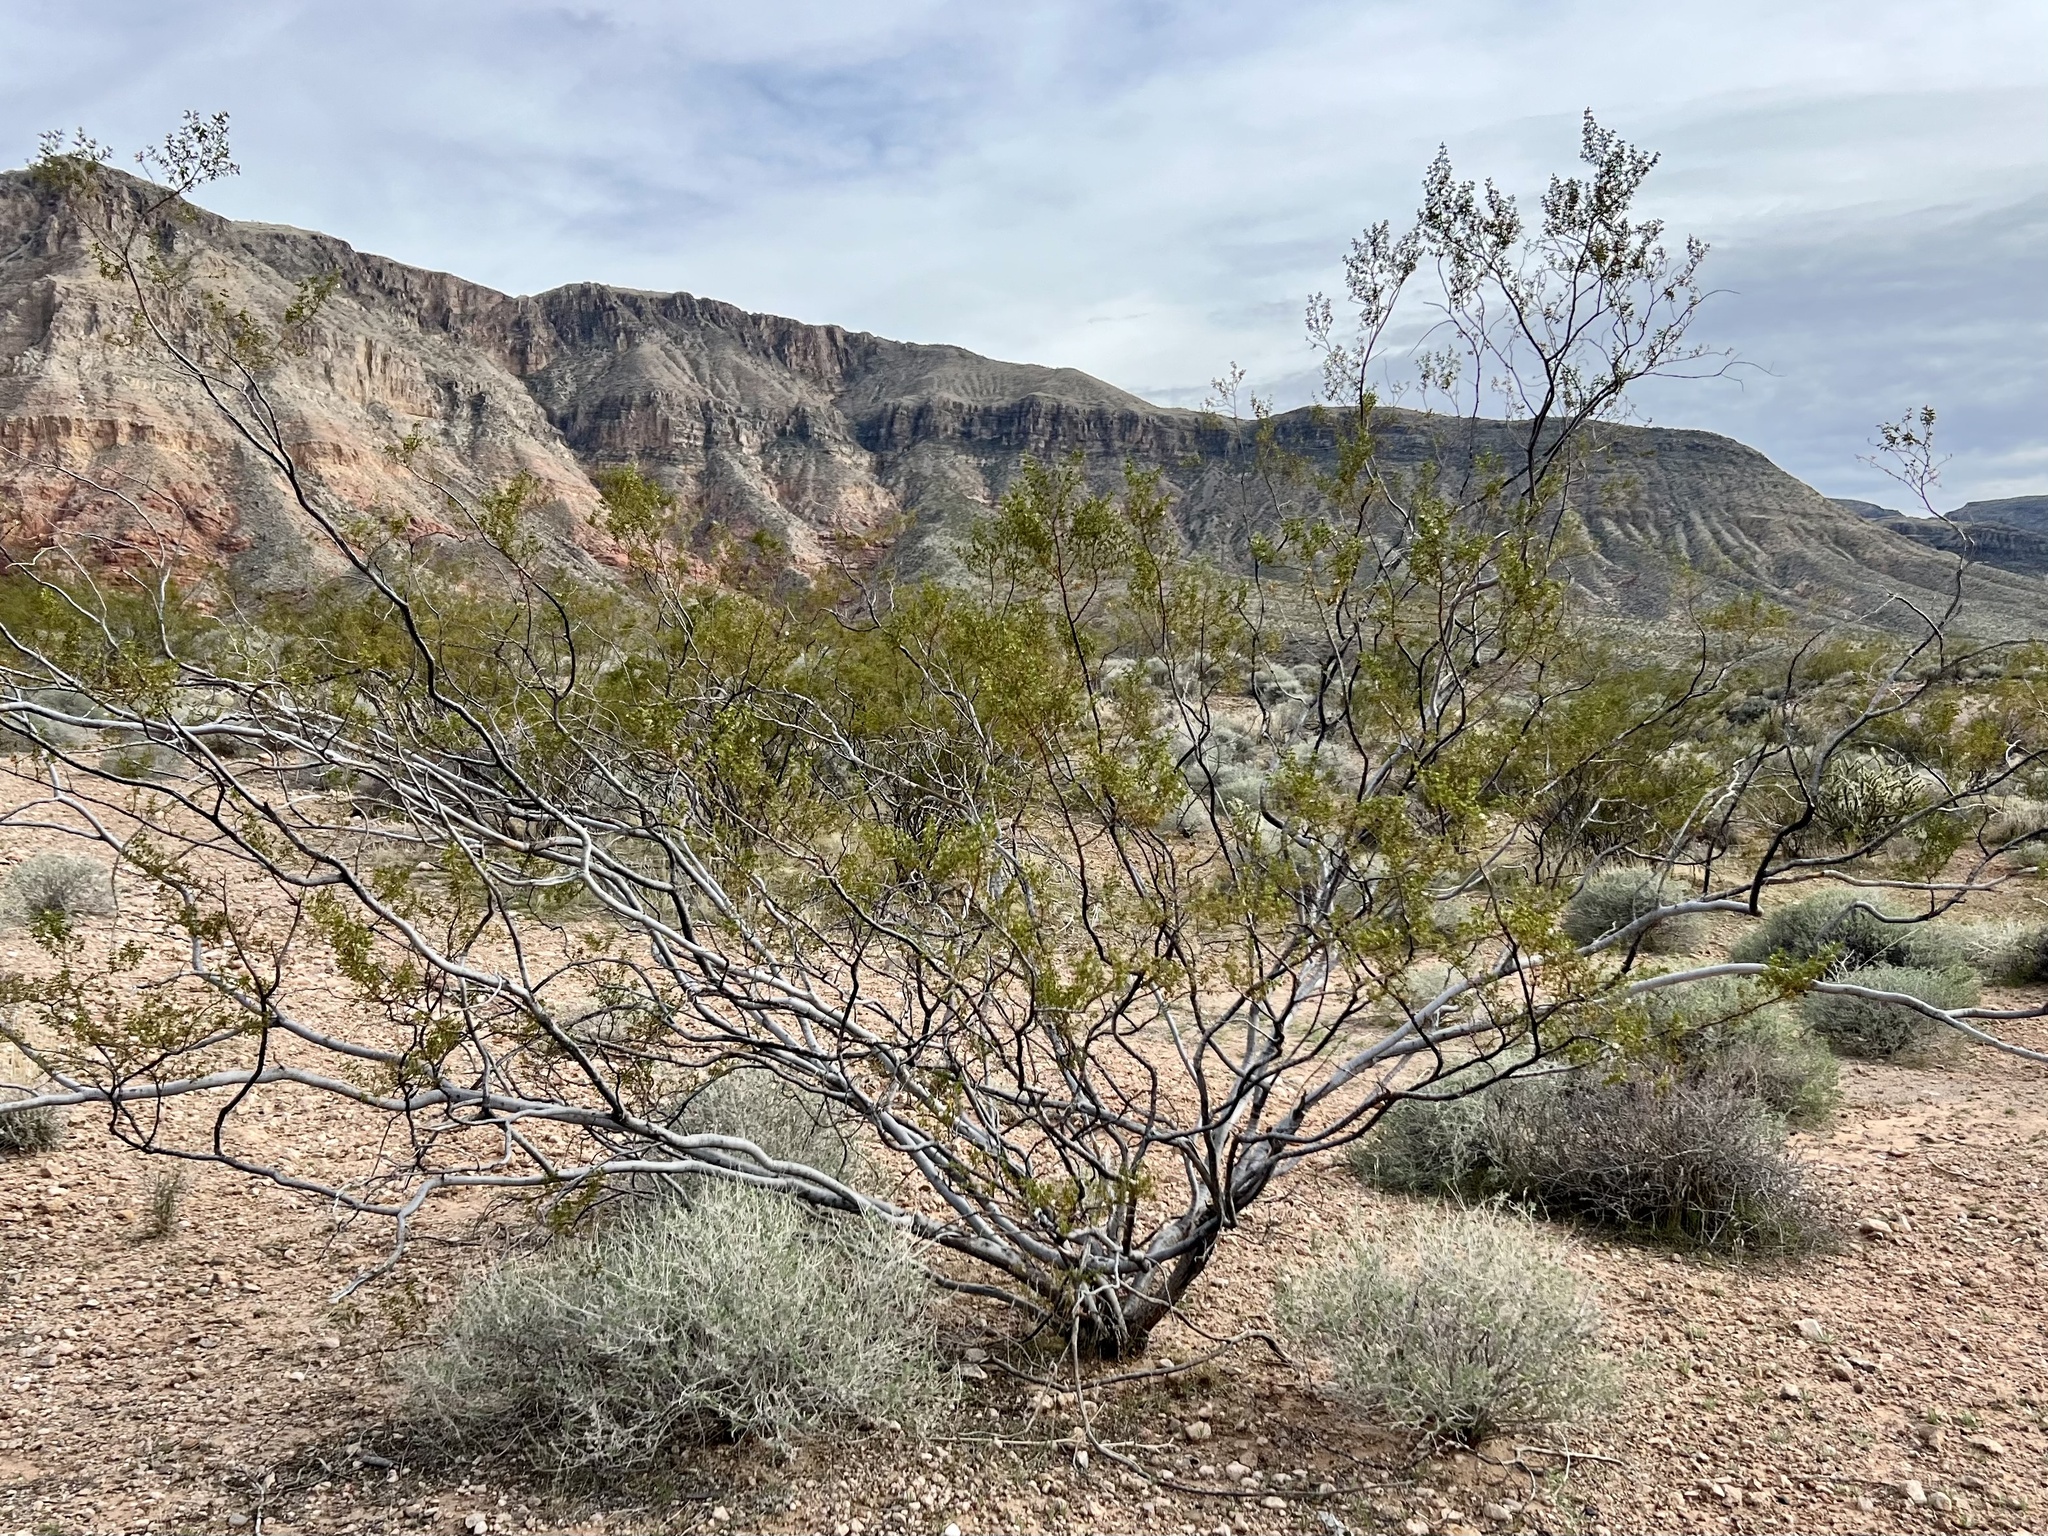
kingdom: Plantae
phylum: Tracheophyta
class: Magnoliopsida
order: Zygophyllales
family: Zygophyllaceae
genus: Larrea
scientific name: Larrea tridentata
